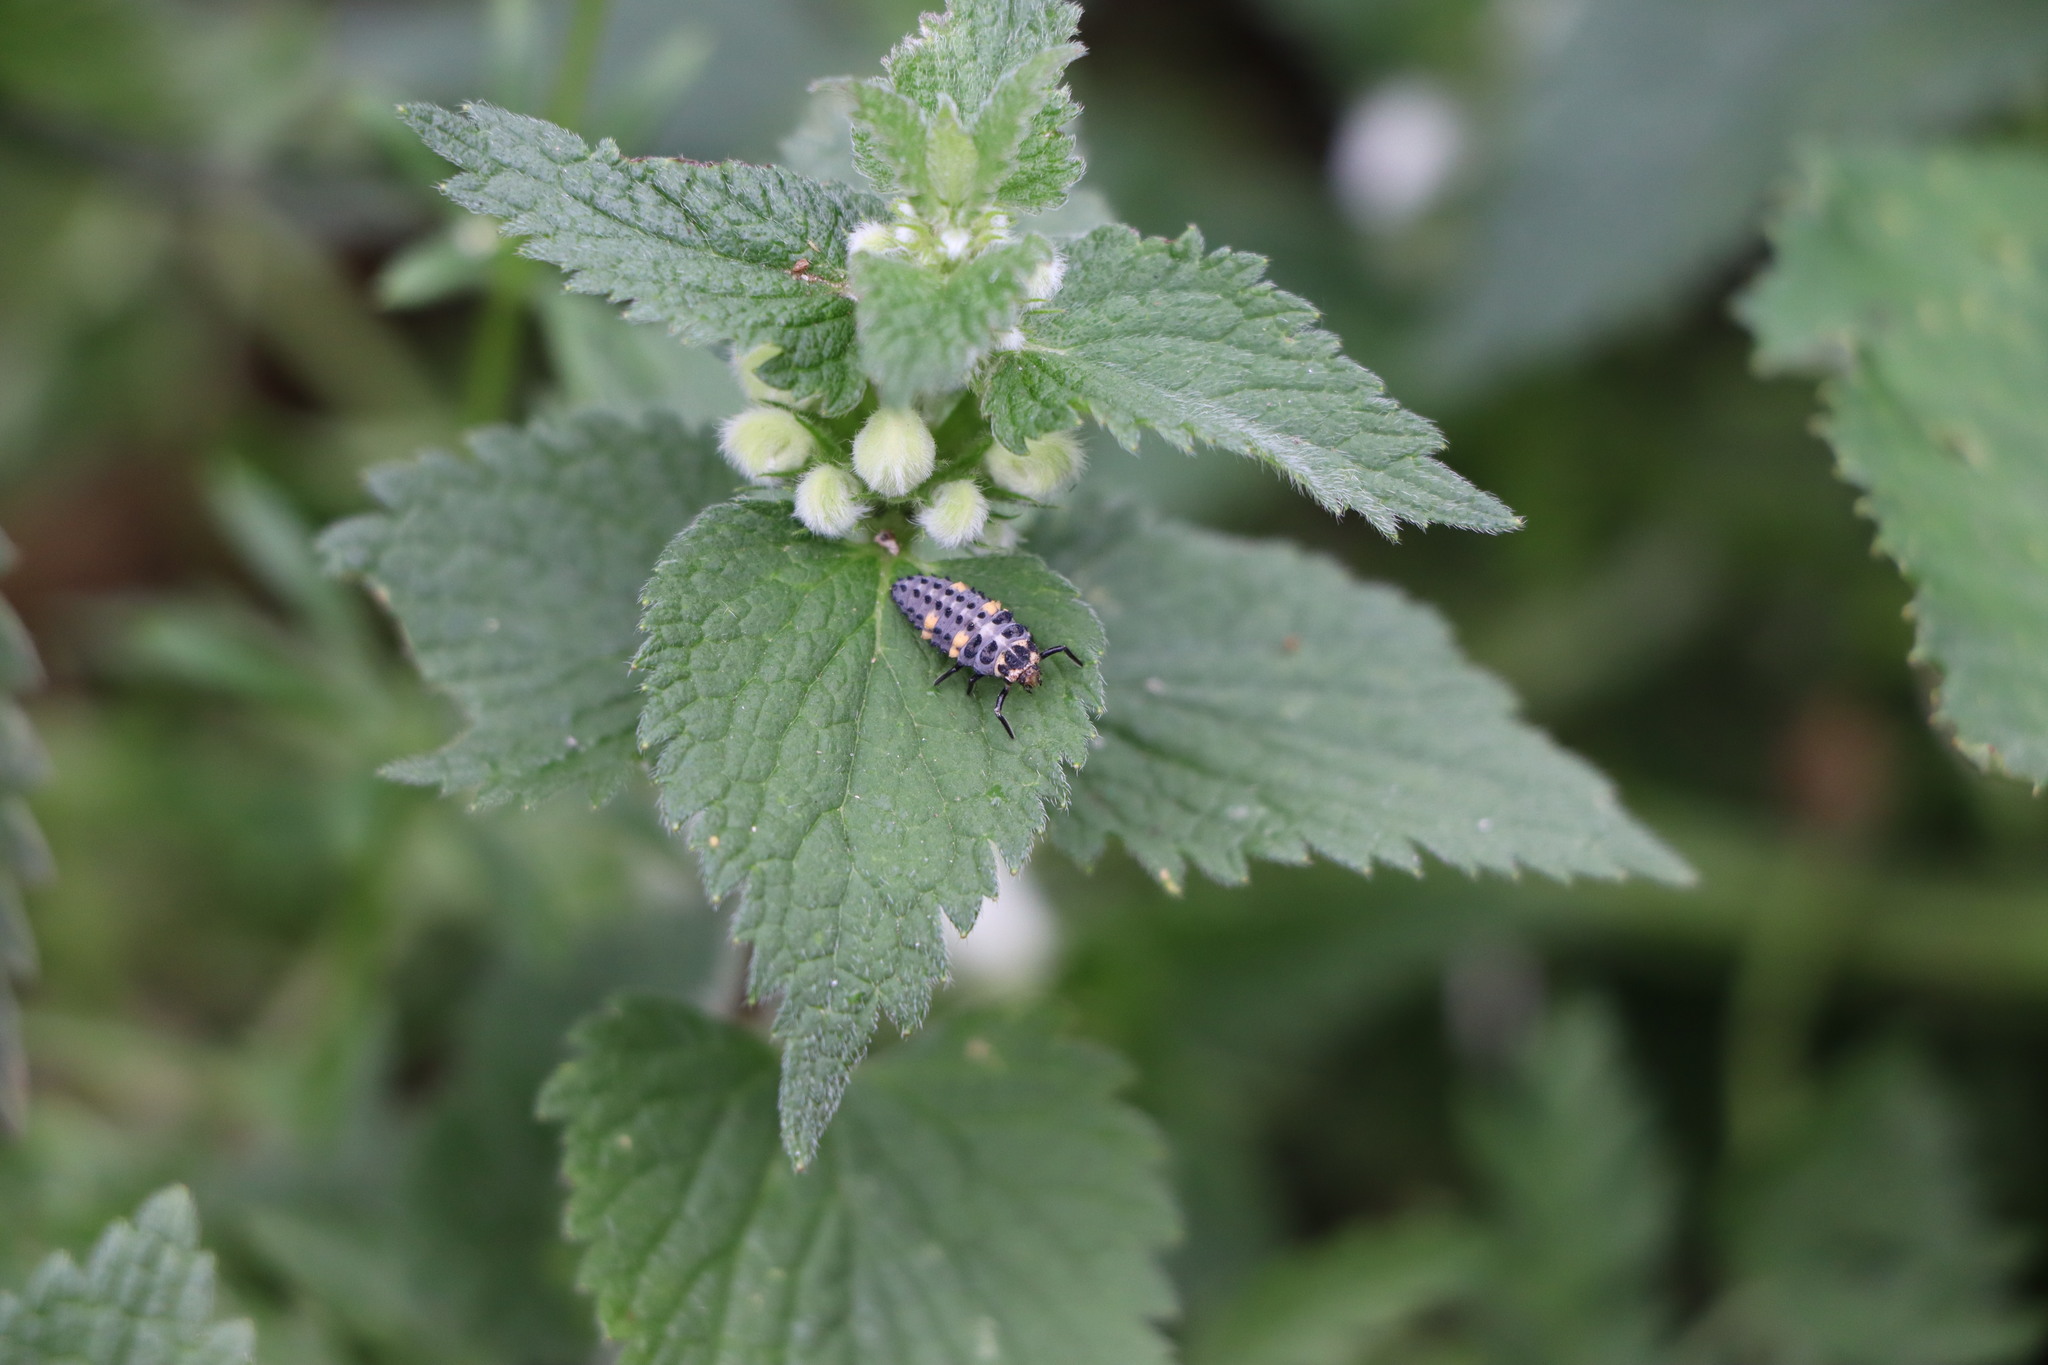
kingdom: Animalia
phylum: Arthropoda
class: Insecta
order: Coleoptera
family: Coccinellidae
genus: Coccinella
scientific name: Coccinella septempunctata
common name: Sevenspotted lady beetle
